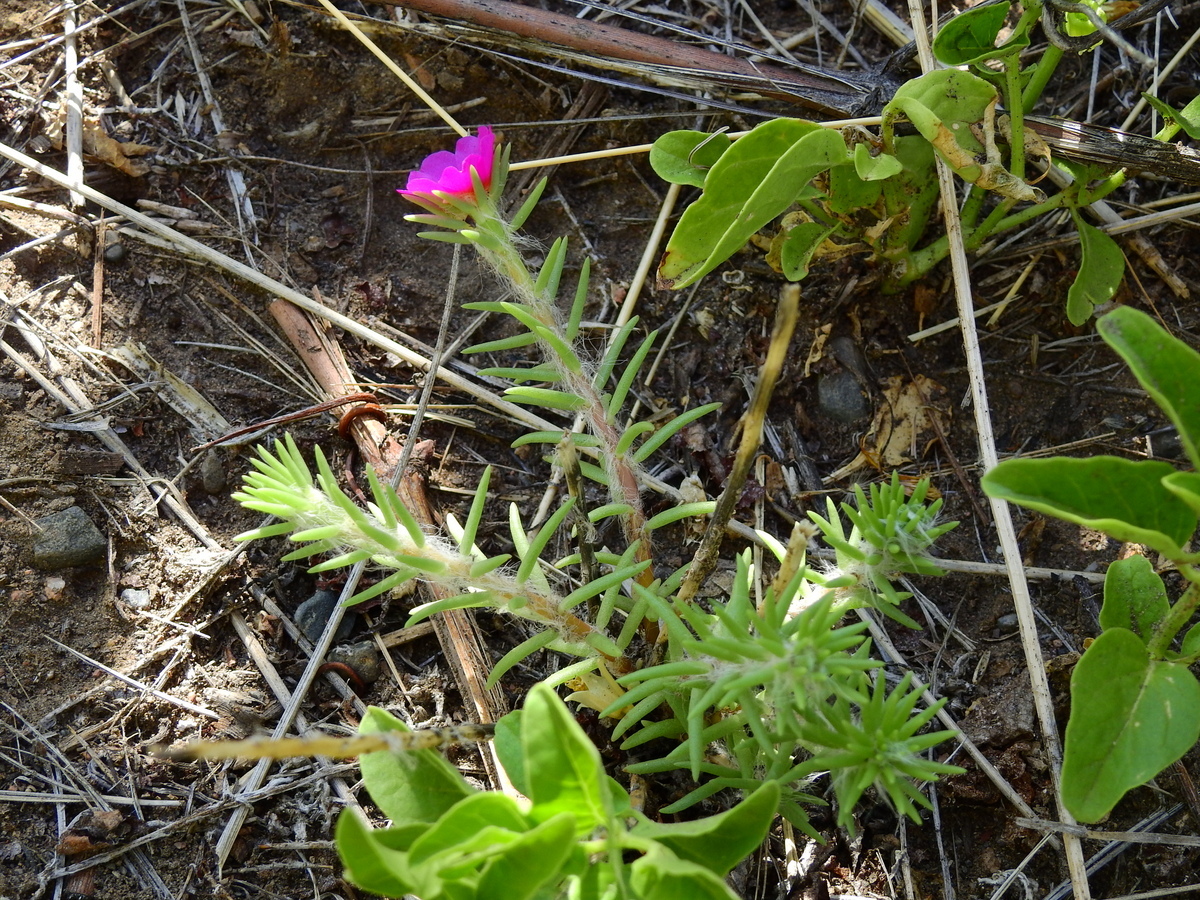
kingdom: Plantae
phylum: Tracheophyta
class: Magnoliopsida
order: Caryophyllales
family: Portulacaceae
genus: Portulaca
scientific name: Portulaca grandiflora
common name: Moss-rose
